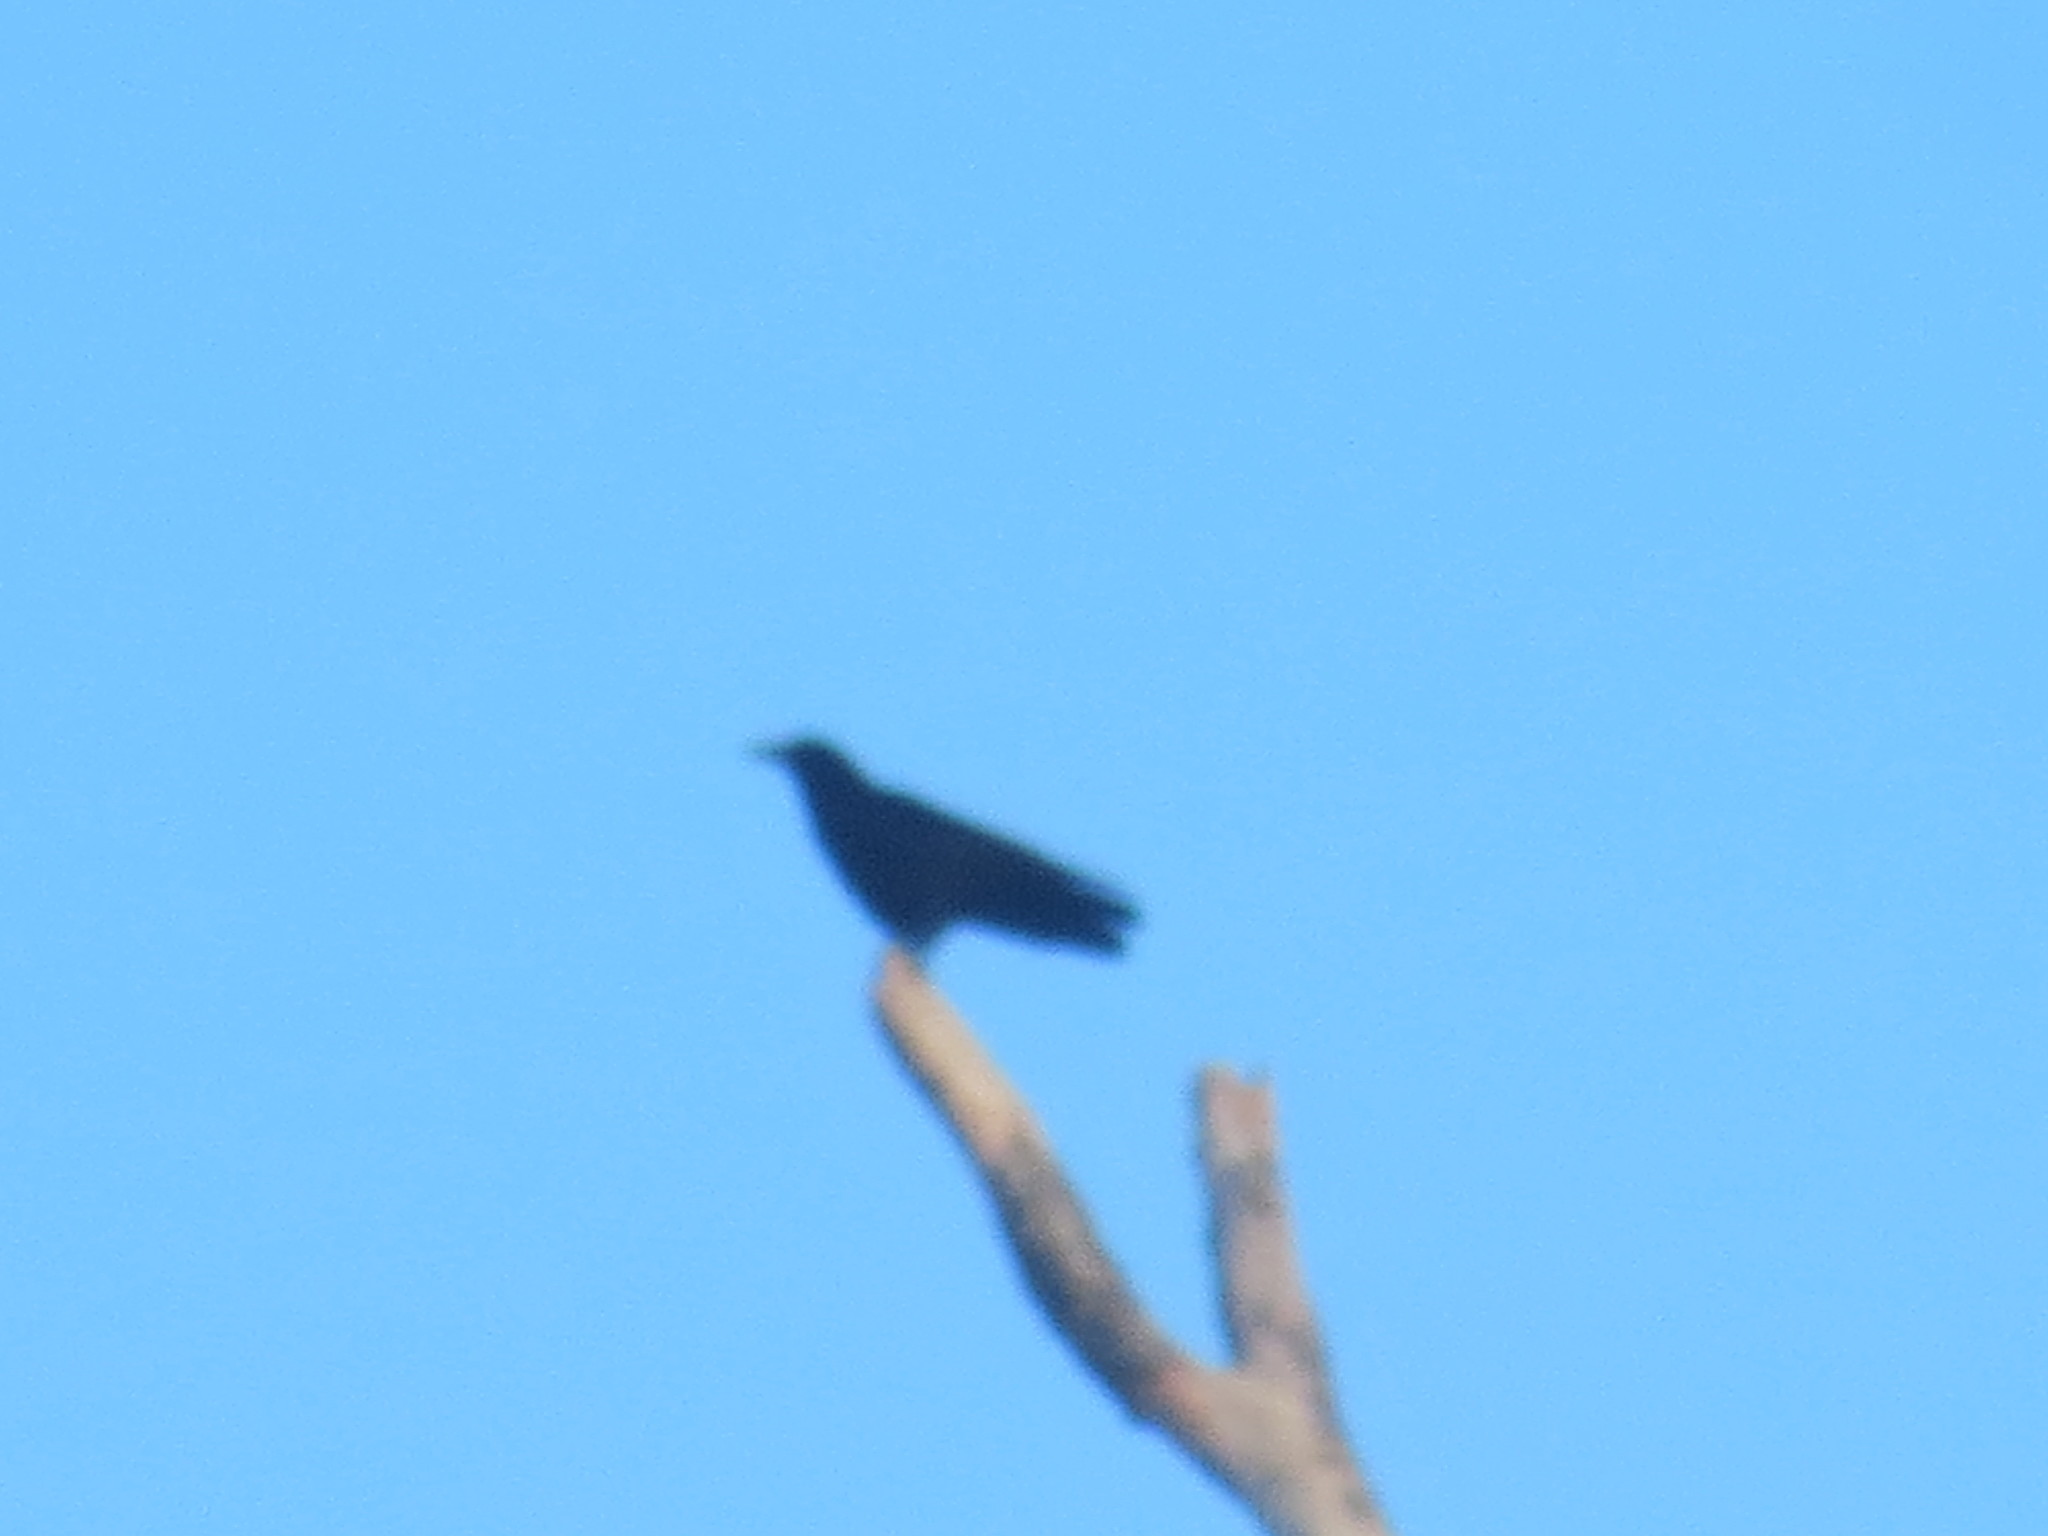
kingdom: Animalia
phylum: Chordata
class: Aves
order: Passeriformes
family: Corvidae
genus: Corvus
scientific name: Corvus brachyrhynchos
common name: American crow
